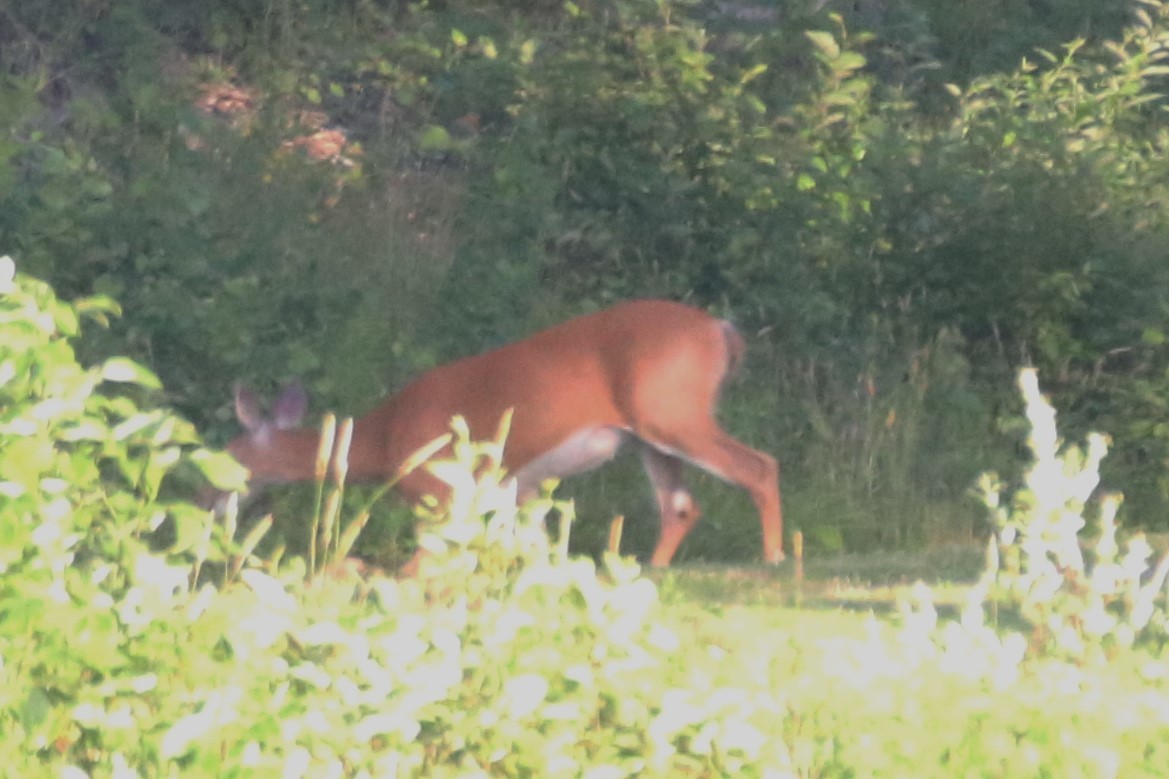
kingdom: Animalia
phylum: Chordata
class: Mammalia
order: Artiodactyla
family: Cervidae
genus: Odocoileus
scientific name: Odocoileus virginianus
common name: White-tailed deer
